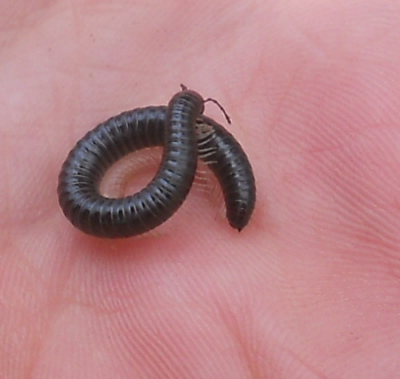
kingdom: Animalia
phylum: Arthropoda
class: Diplopoda
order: Julida
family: Julidae
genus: Tachypodoiulus
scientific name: Tachypodoiulus niger
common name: White-legged snake millipede
